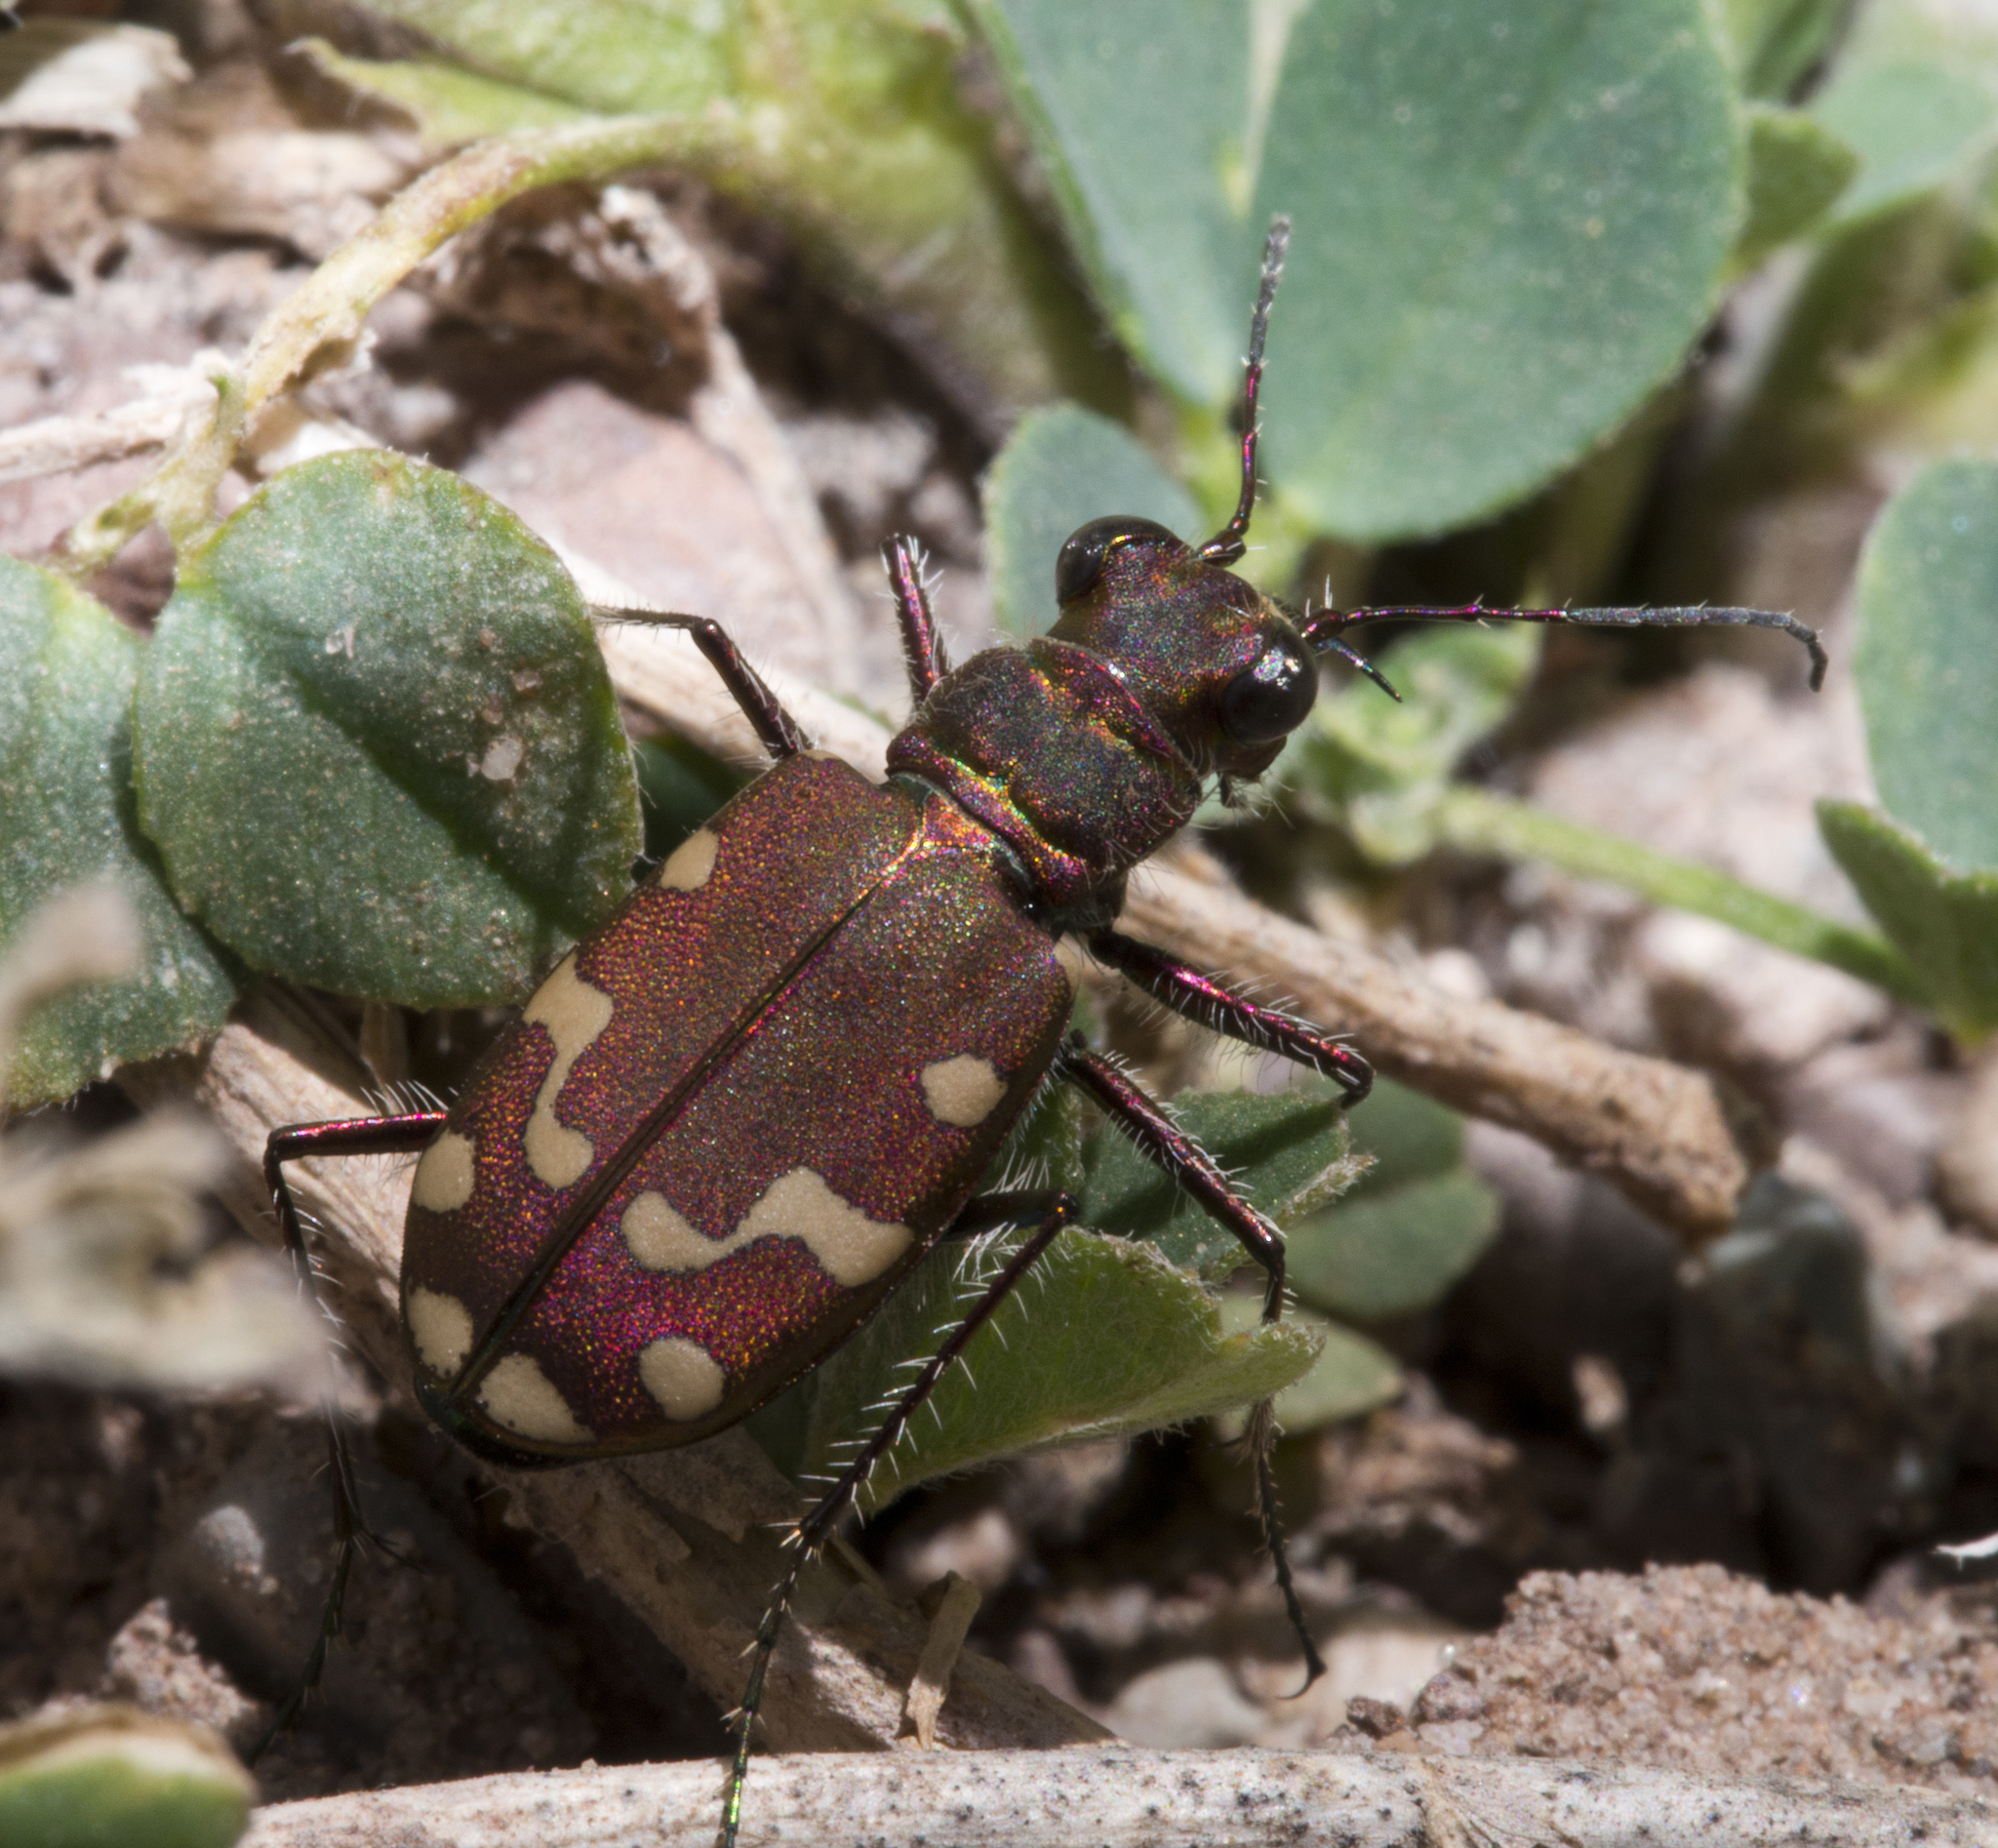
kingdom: Animalia
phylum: Arthropoda
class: Insecta
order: Coleoptera
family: Carabidae
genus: Cicindela
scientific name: Cicindela oregona
